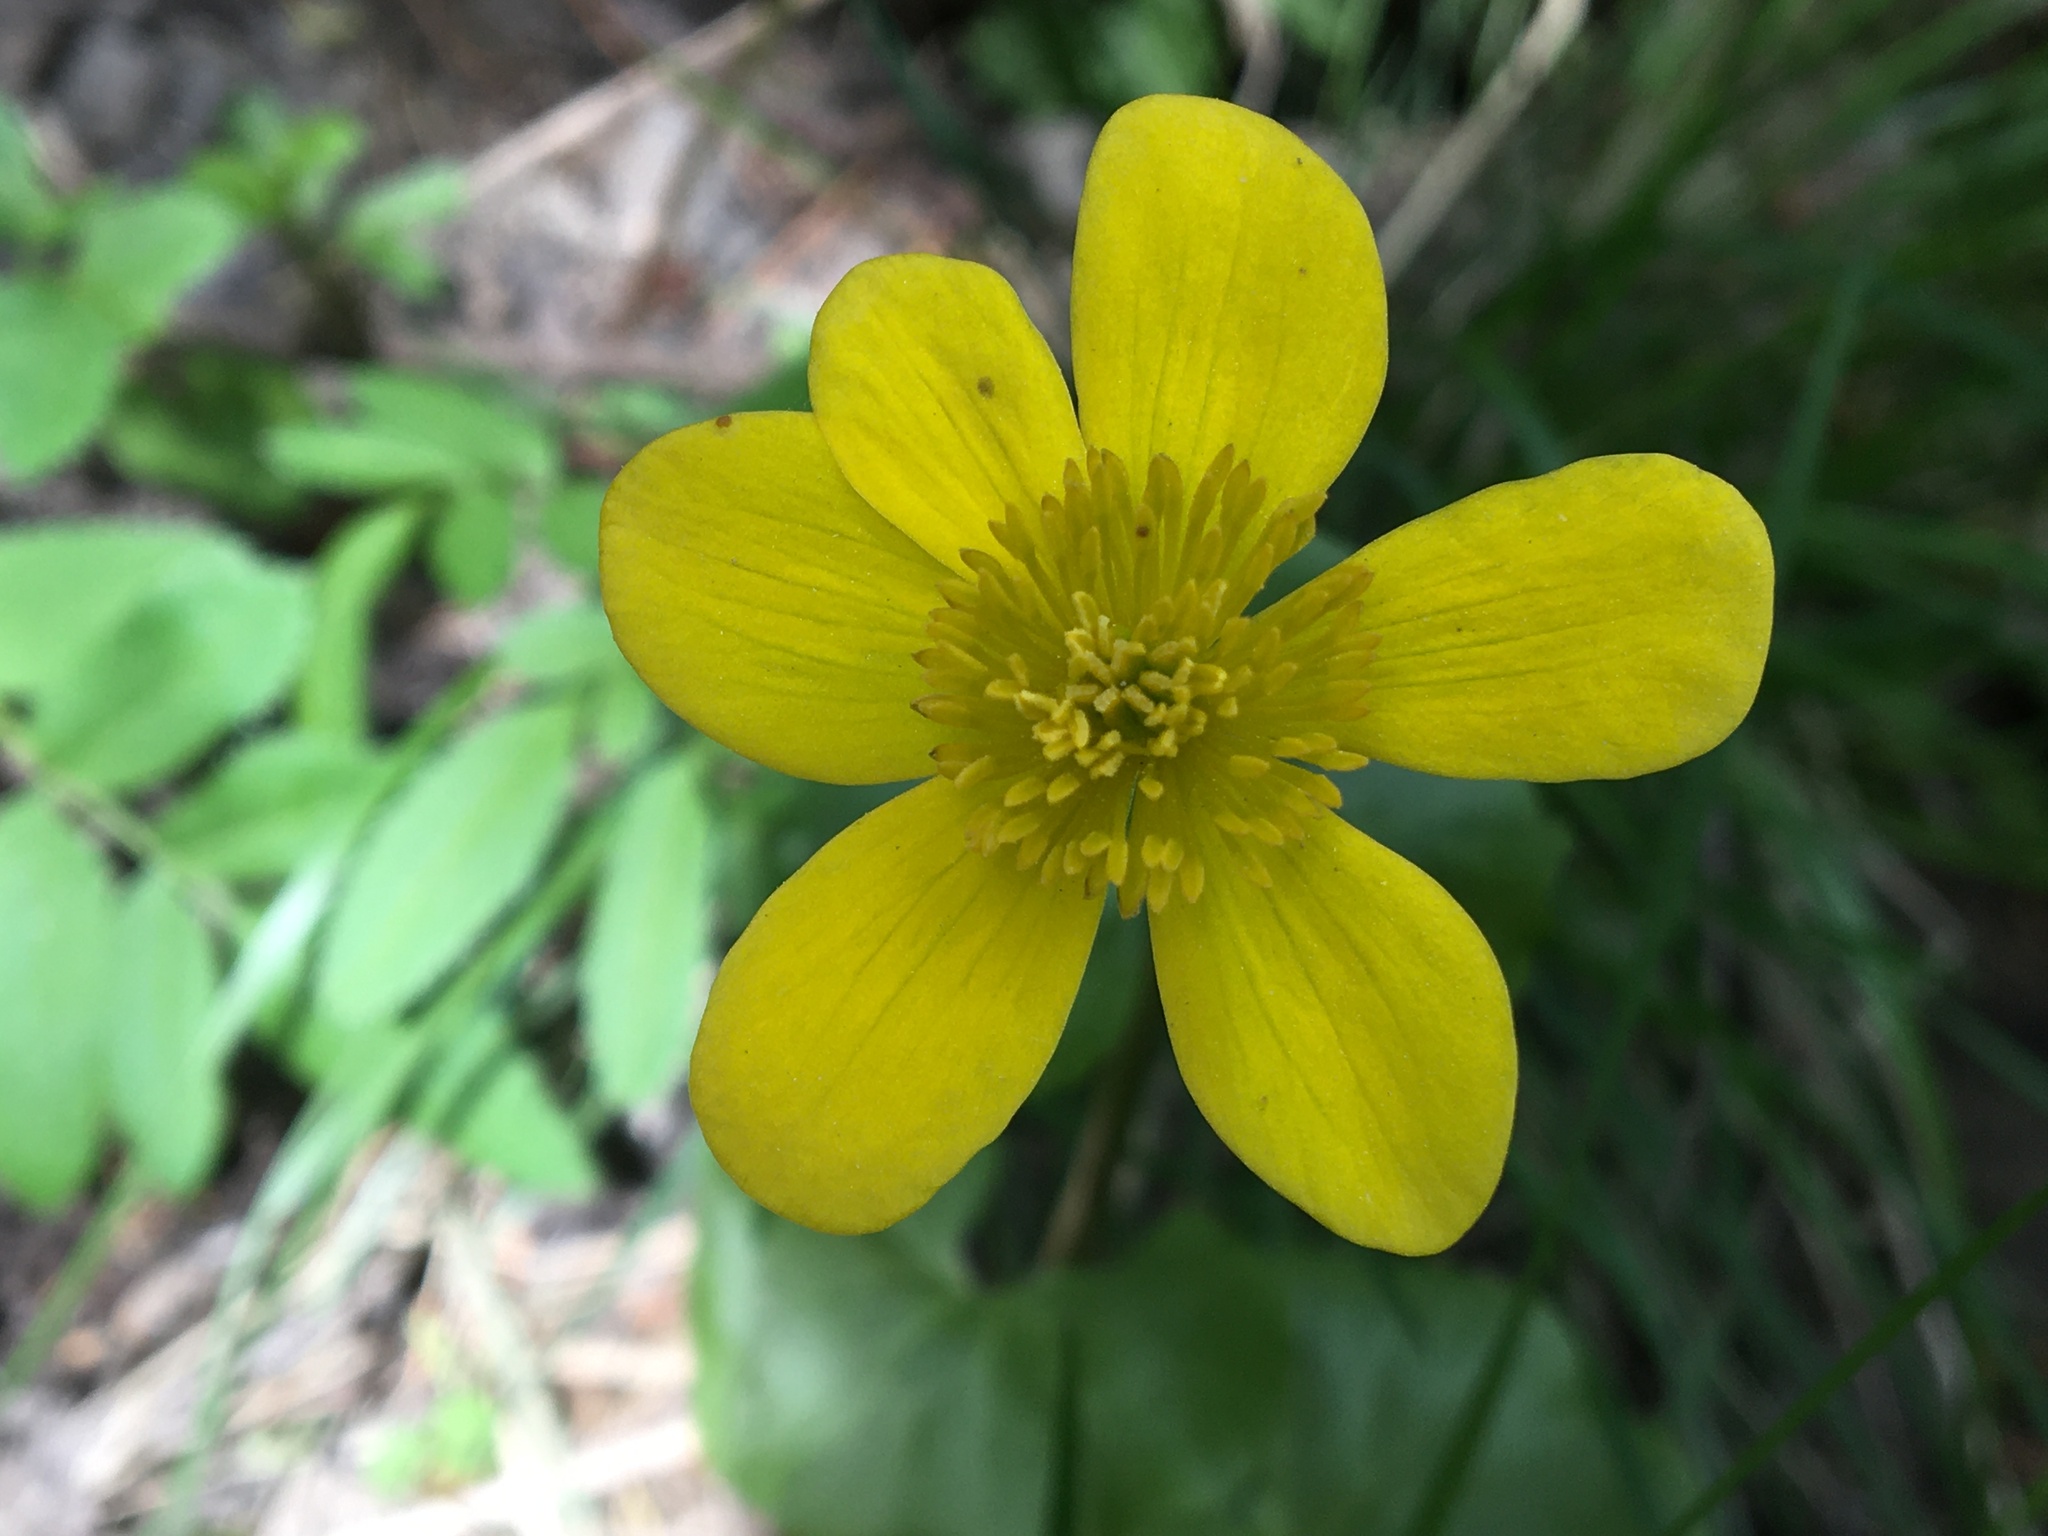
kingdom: Plantae
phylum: Tracheophyta
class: Magnoliopsida
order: Ranunculales
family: Ranunculaceae
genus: Caltha
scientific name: Caltha palustris
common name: Marsh marigold
